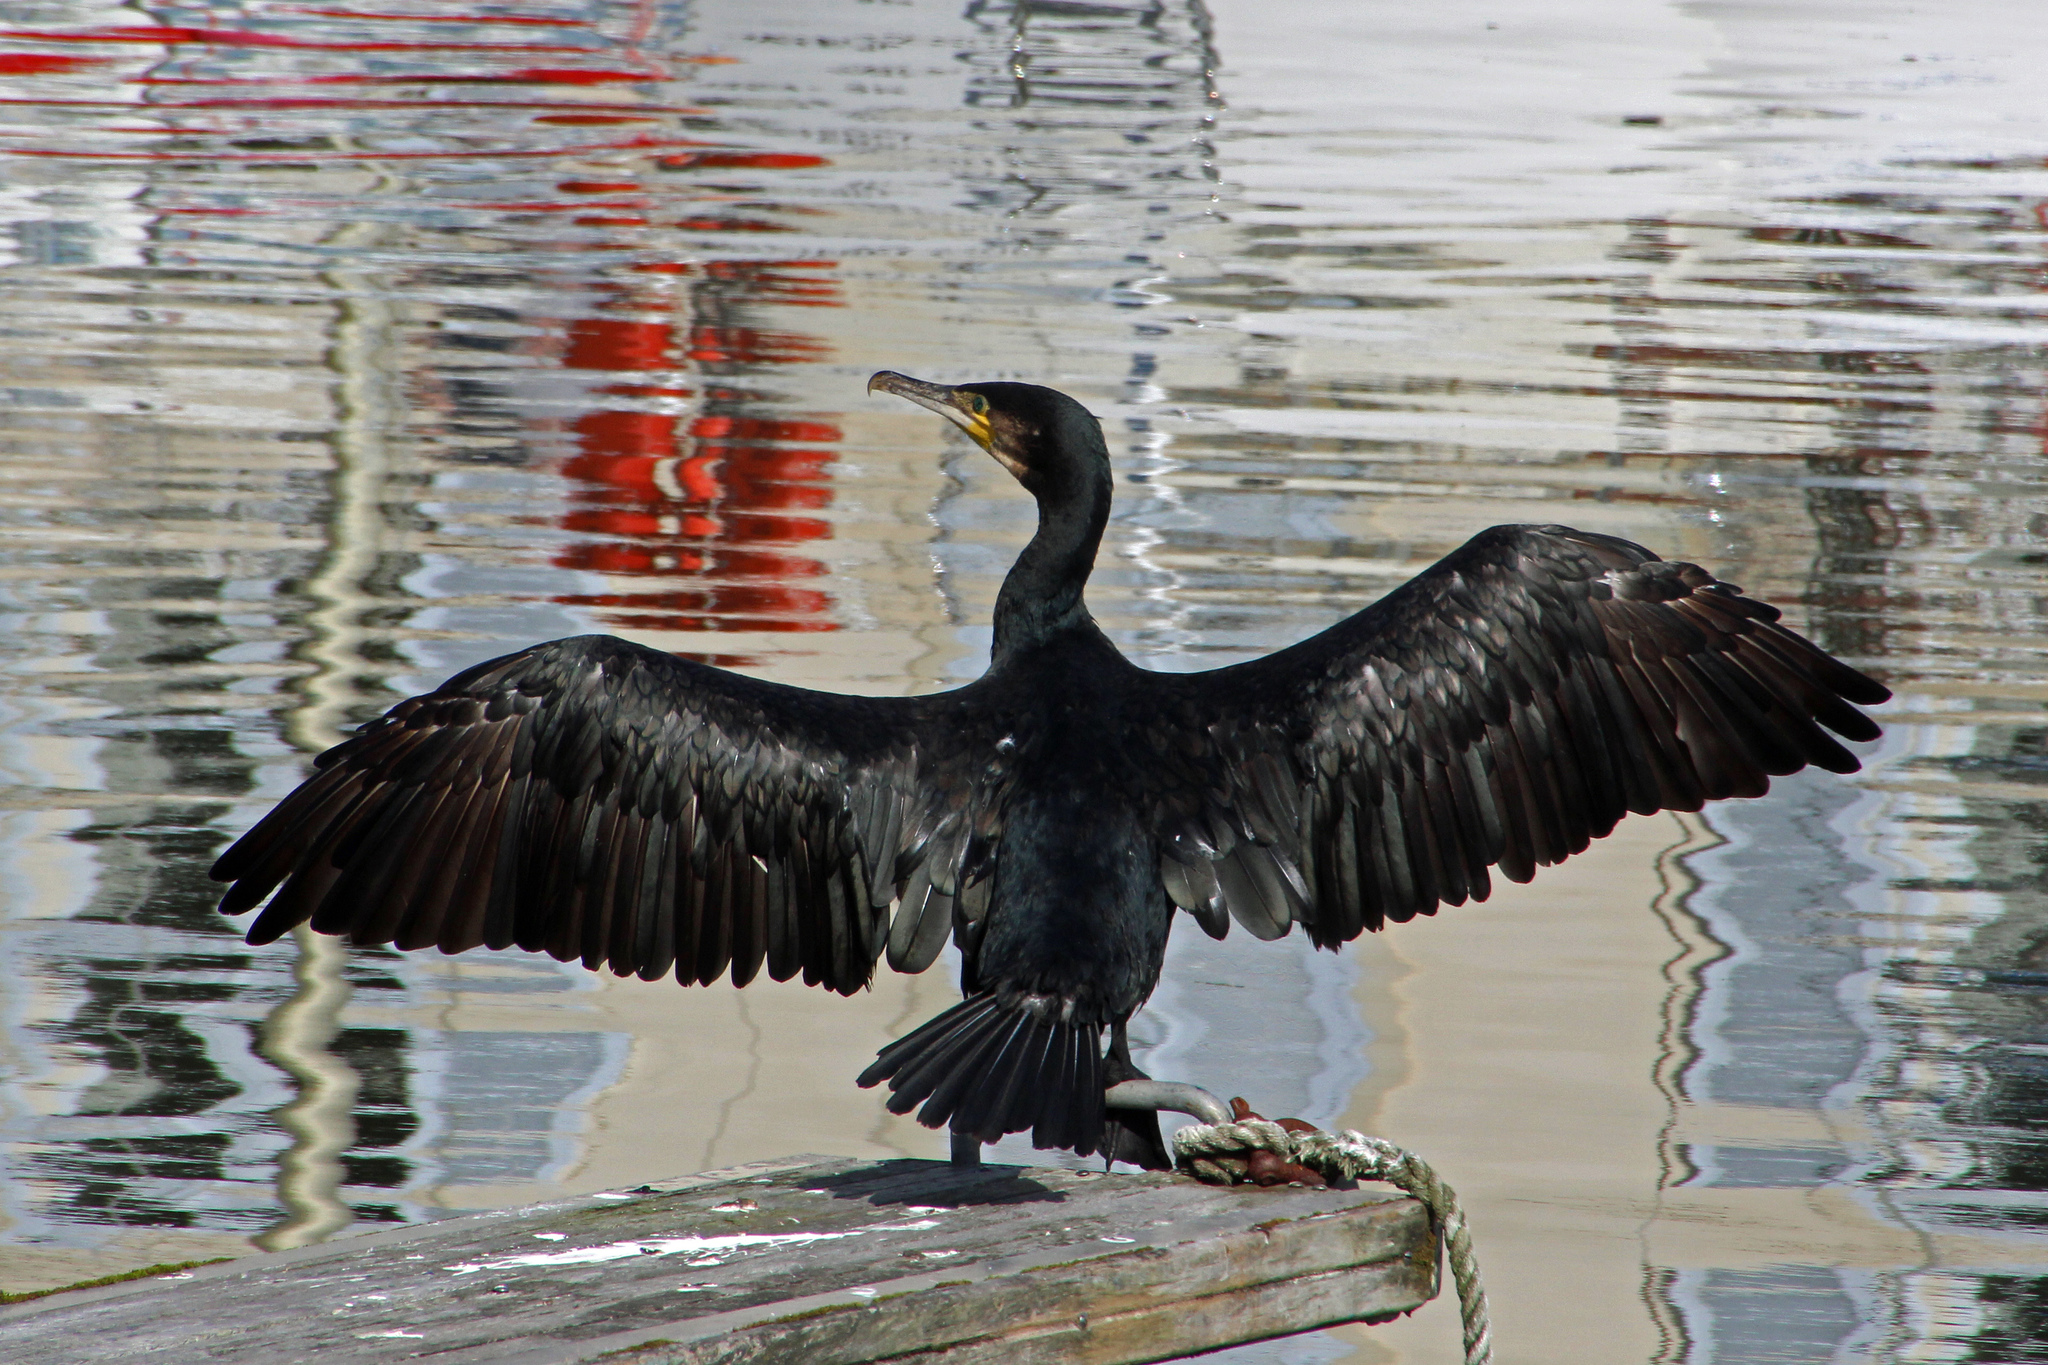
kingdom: Animalia
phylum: Chordata
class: Aves
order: Suliformes
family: Phalacrocoracidae
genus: Phalacrocorax
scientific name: Phalacrocorax carbo
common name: Great cormorant
